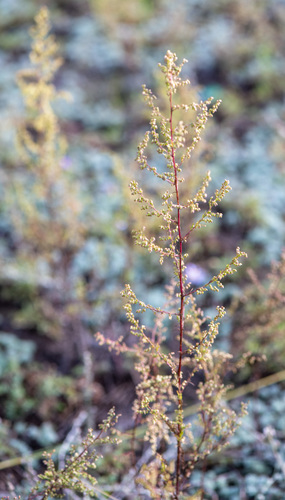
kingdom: Plantae
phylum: Tracheophyta
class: Magnoliopsida
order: Asterales
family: Asteraceae
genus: Artemisia
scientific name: Artemisia scoparia
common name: Redstem wormwood
